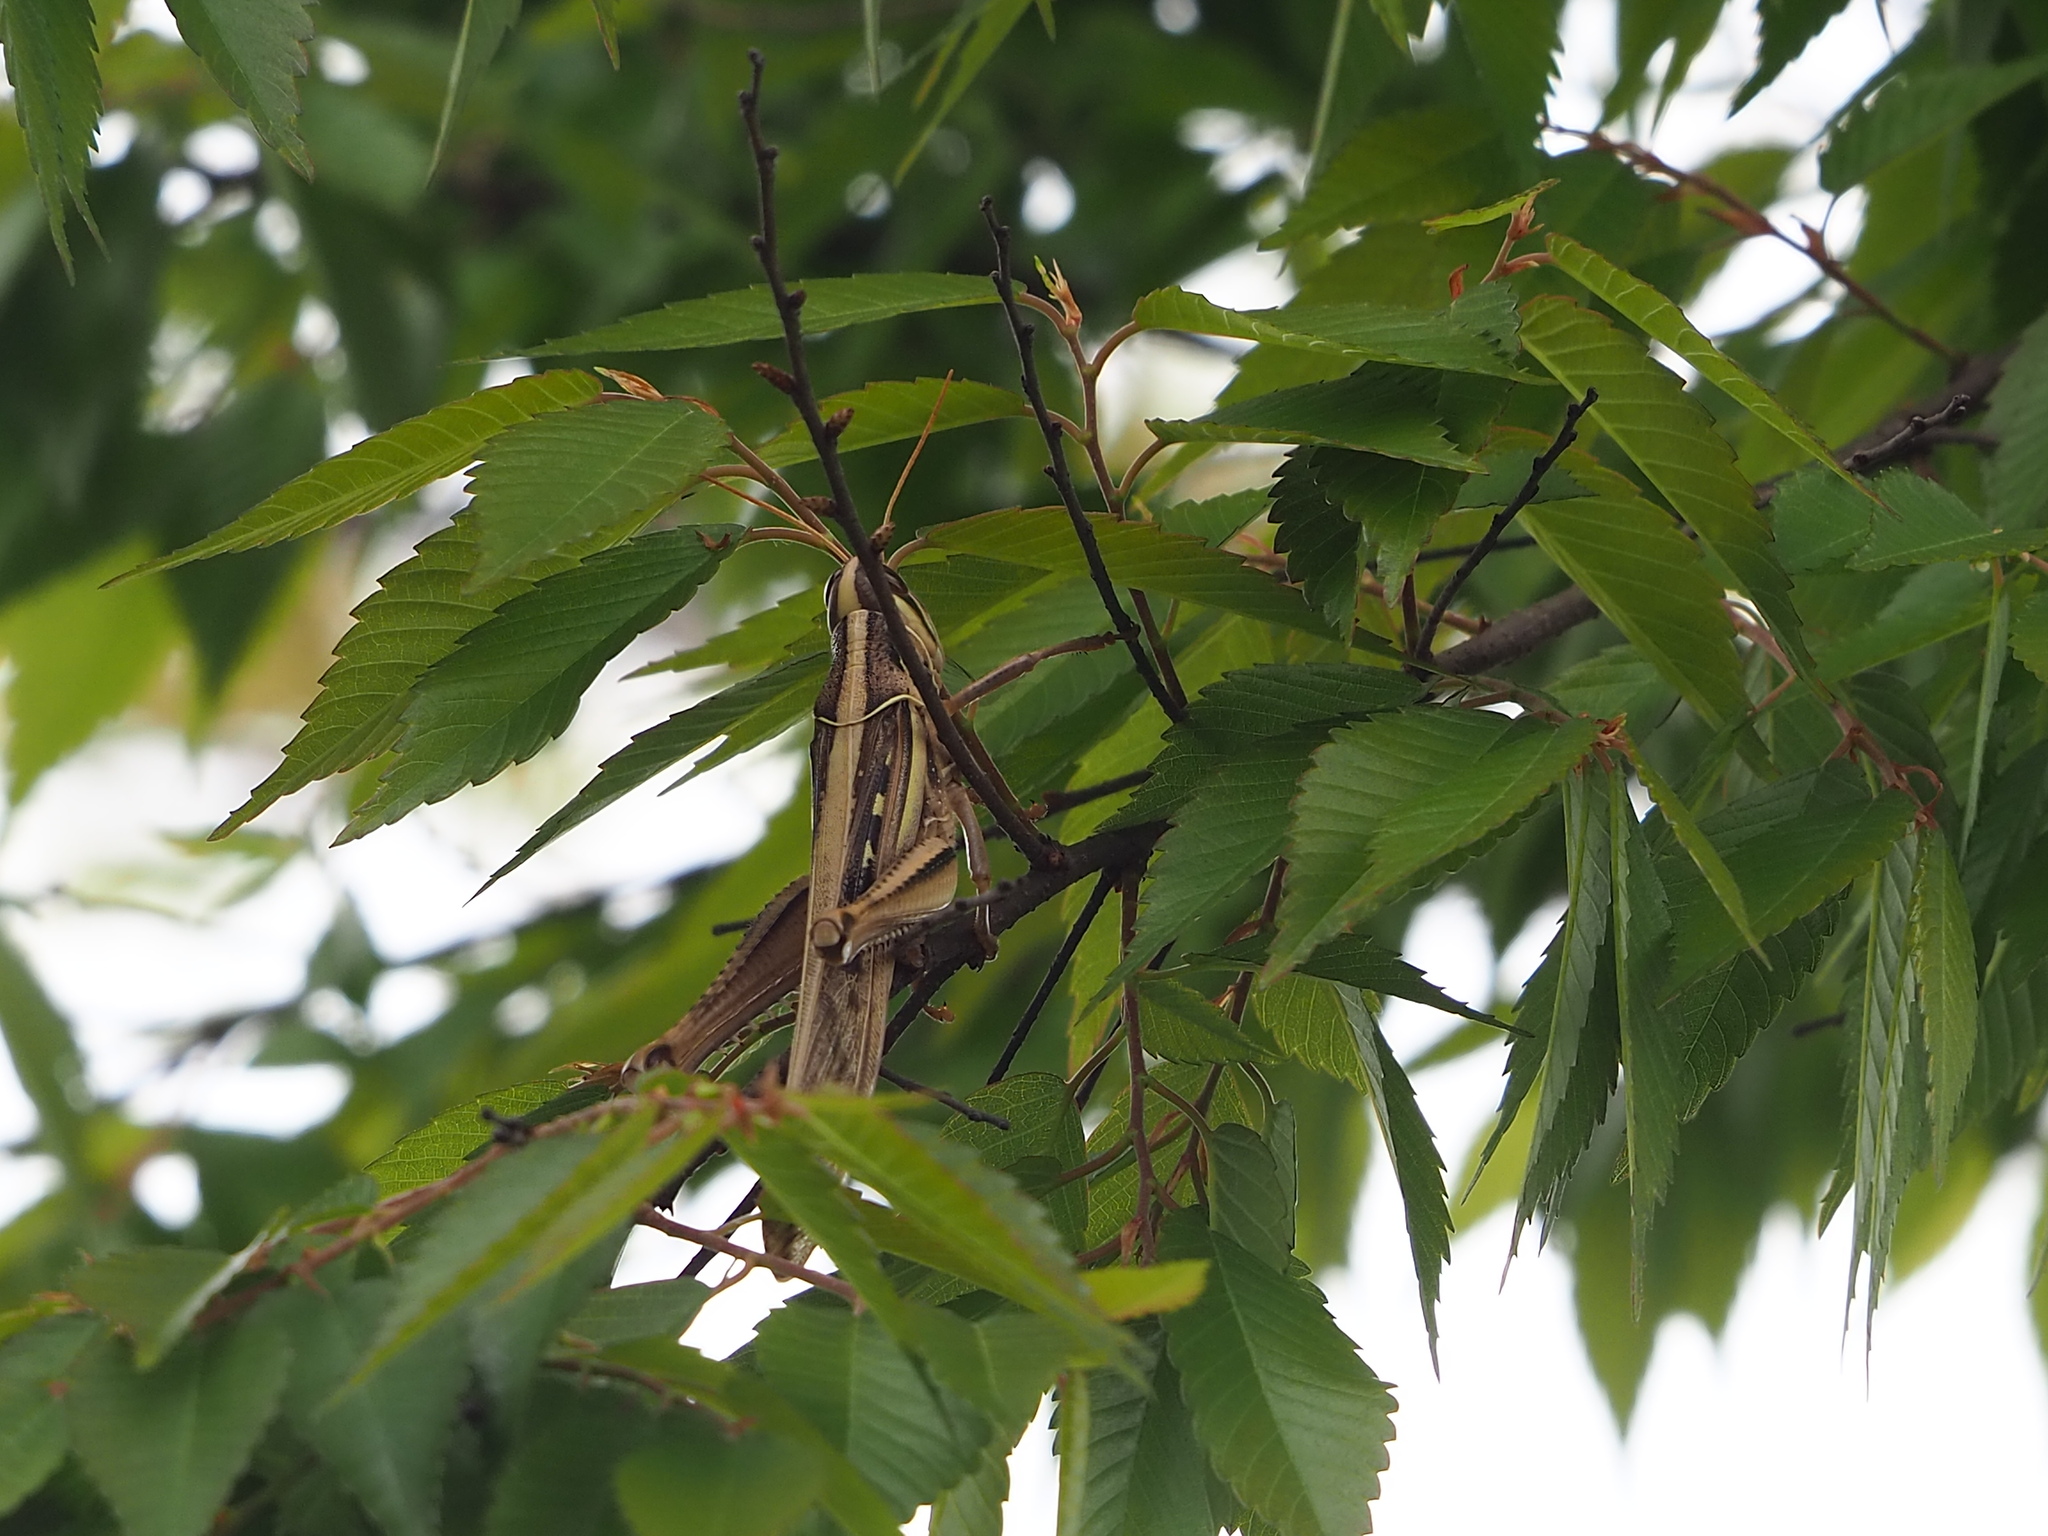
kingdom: Animalia
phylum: Arthropoda
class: Insecta
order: Orthoptera
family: Acrididae
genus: Patanga
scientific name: Patanga succincta
